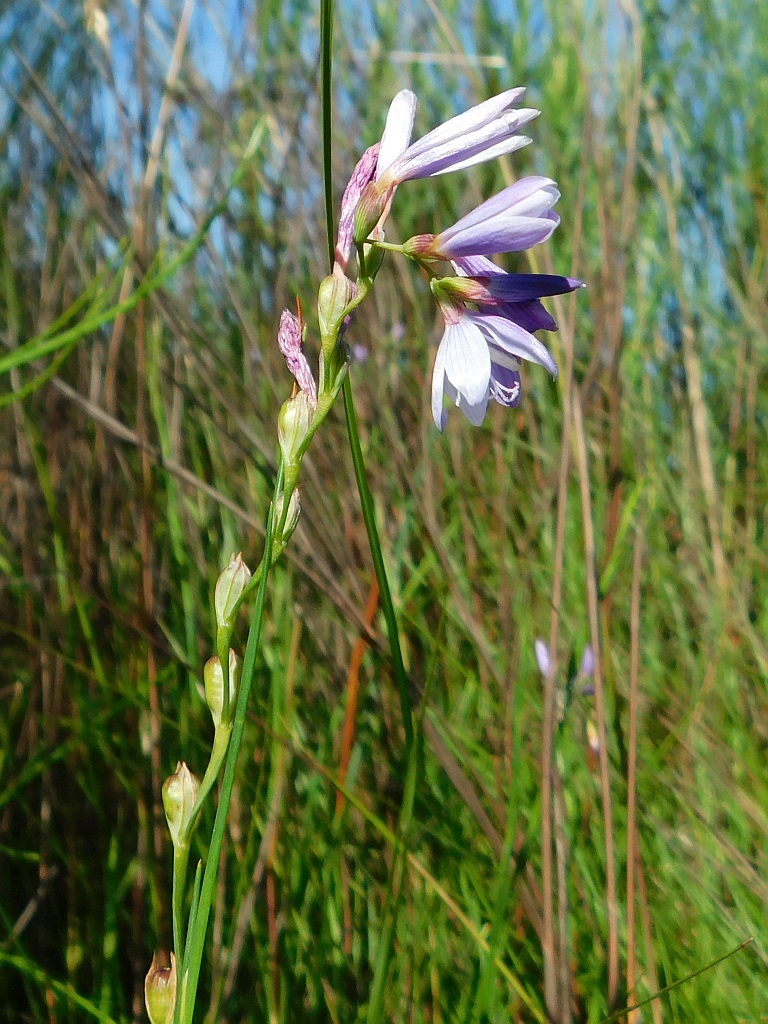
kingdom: Plantae
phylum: Tracheophyta
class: Liliopsida
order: Asparagales
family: Iridaceae
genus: Geissorhiza
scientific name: Geissorhiza ramosa
